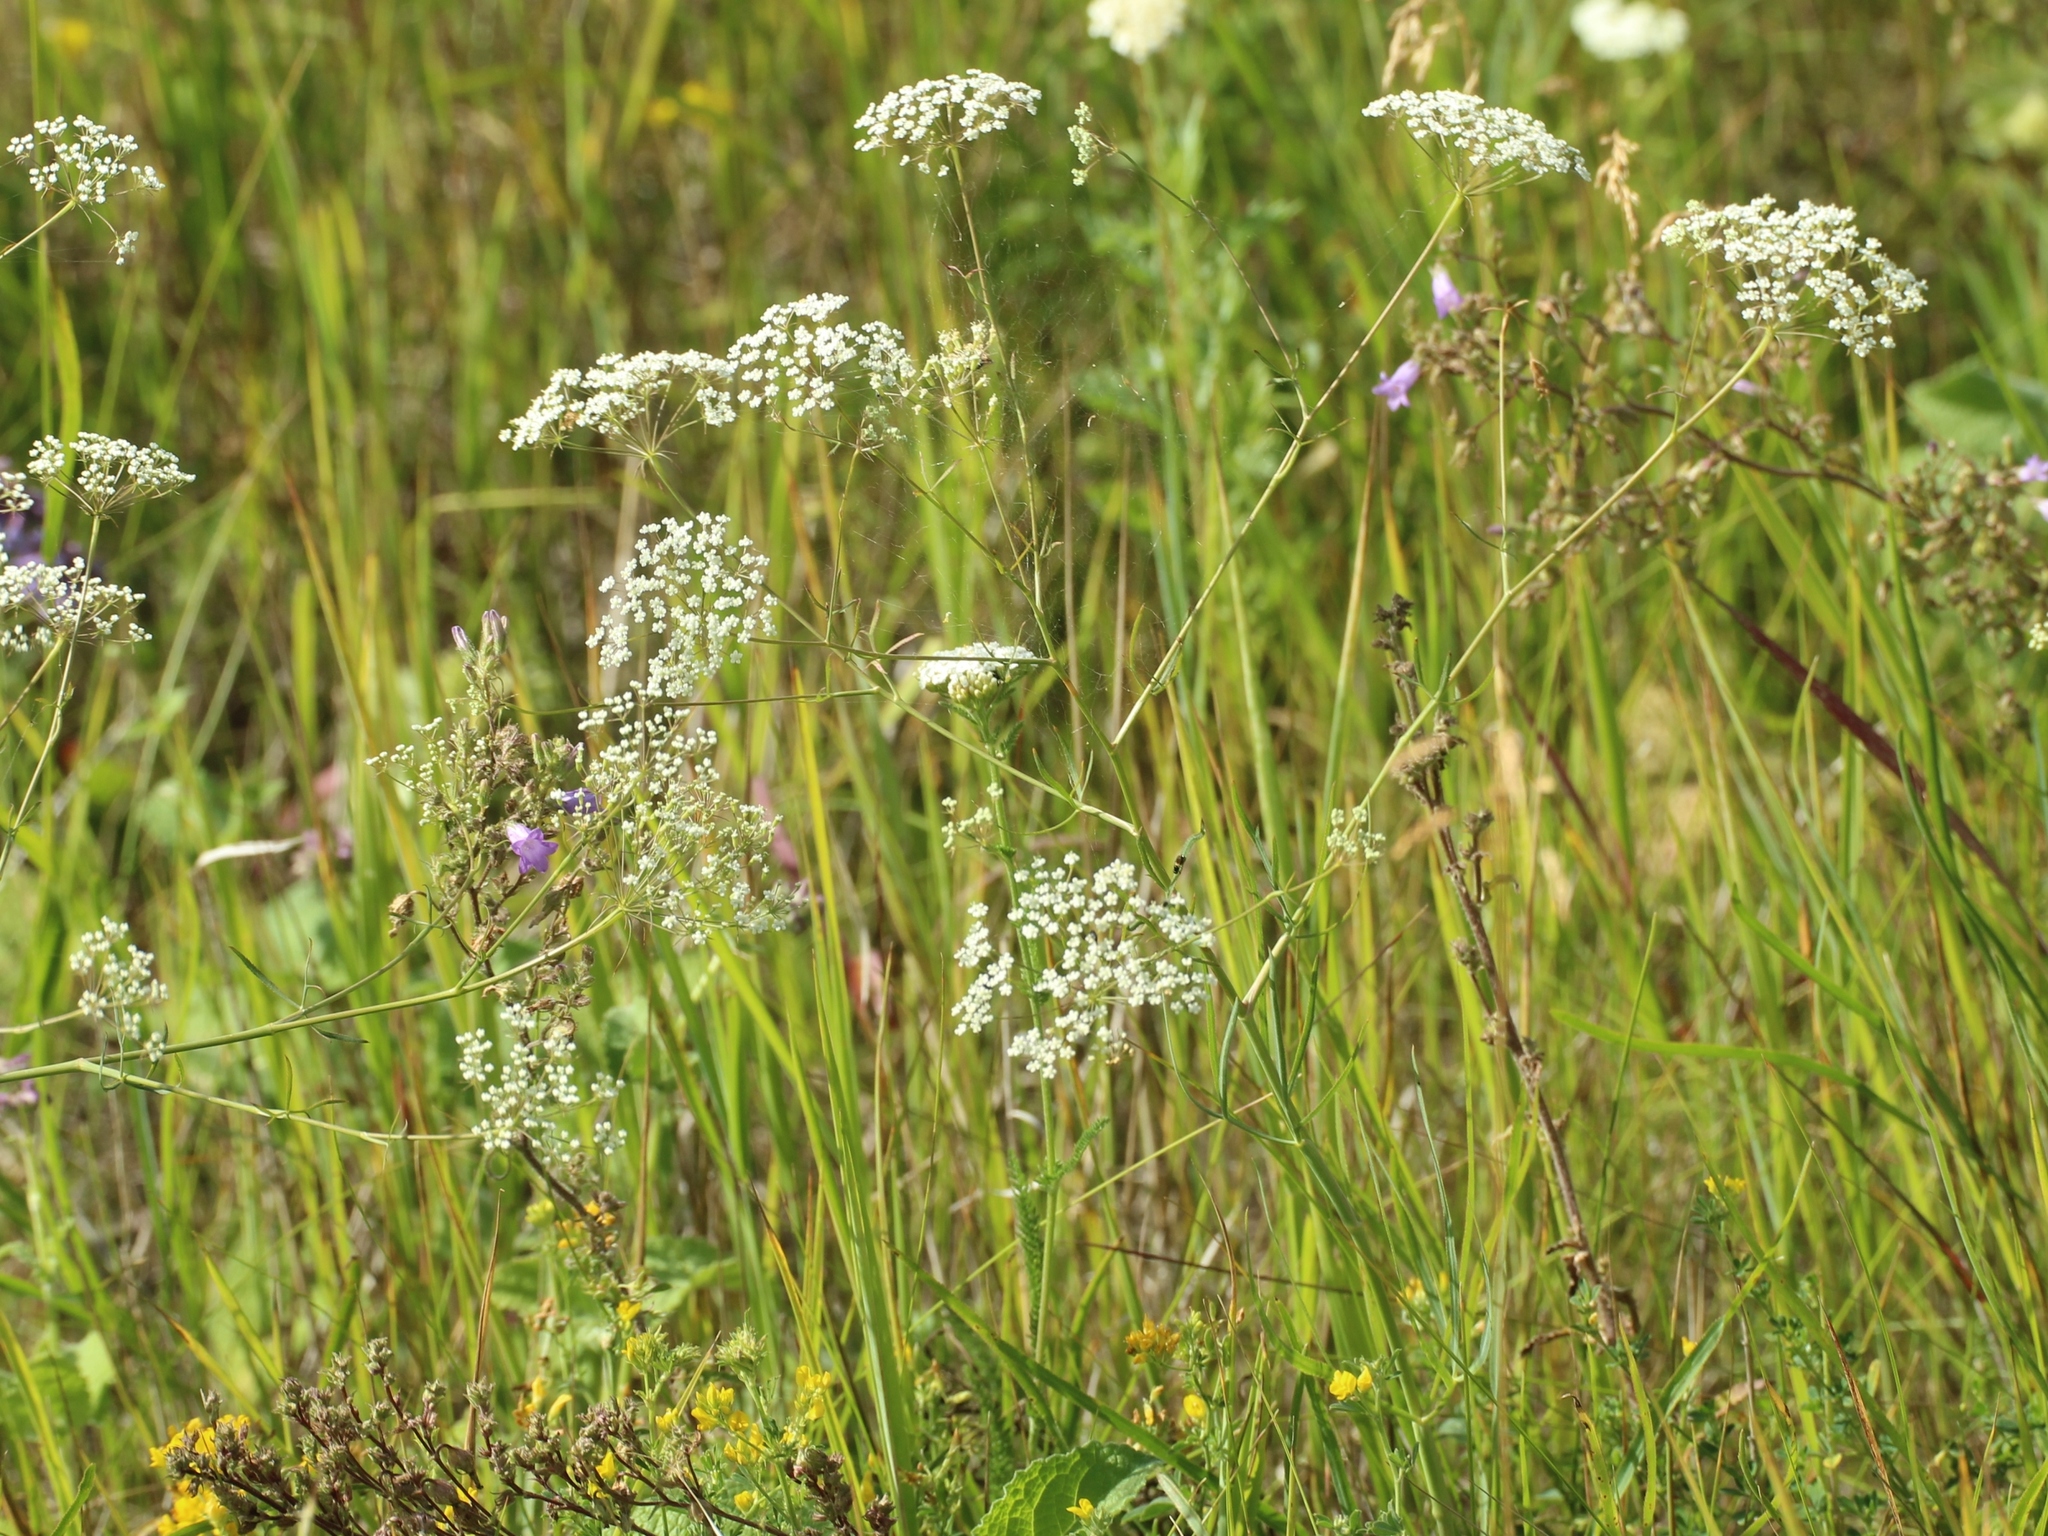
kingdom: Plantae
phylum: Tracheophyta
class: Magnoliopsida
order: Apiales
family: Apiaceae
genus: Falcaria
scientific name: Falcaria vulgaris
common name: Longleaf
